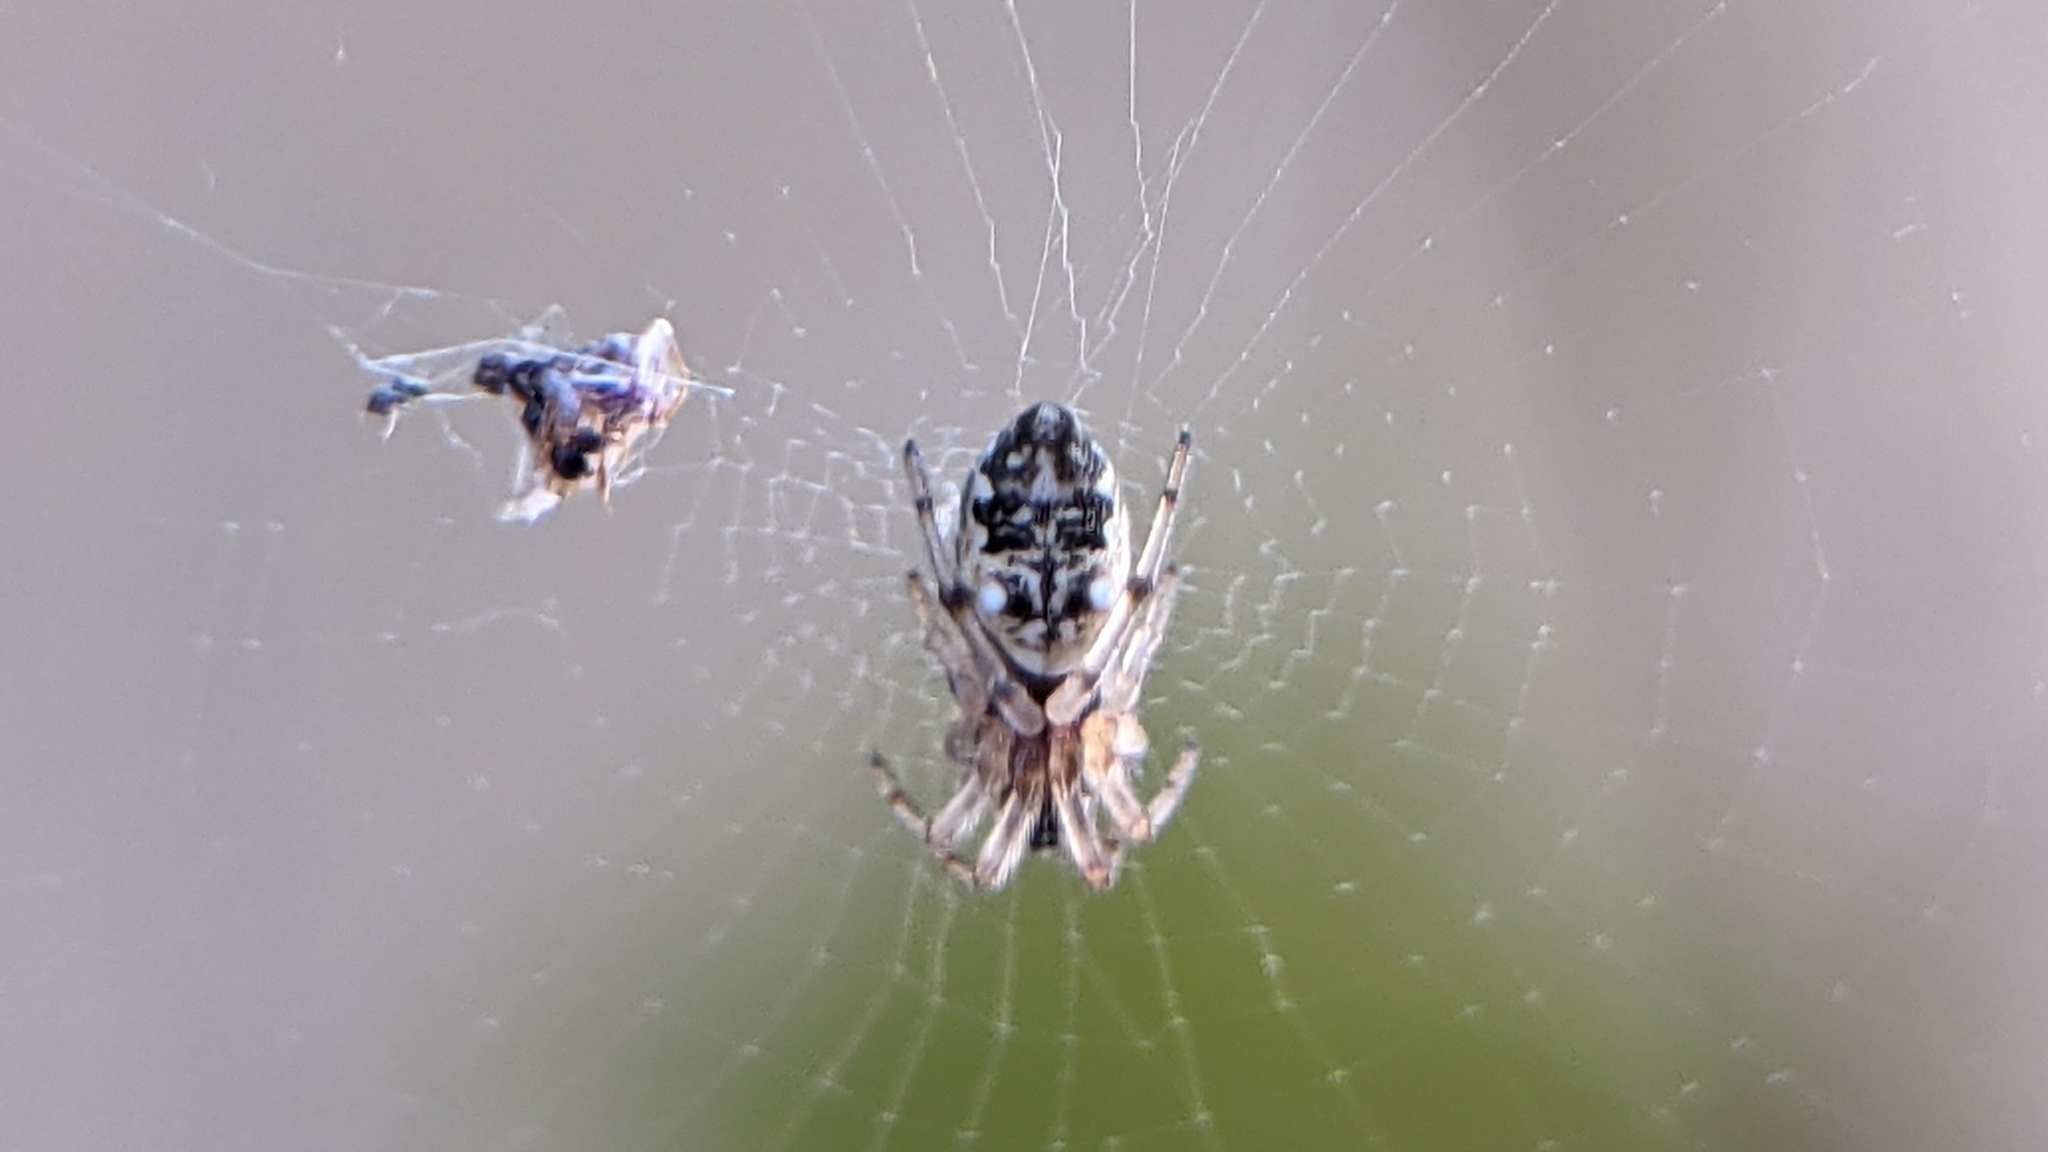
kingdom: Animalia
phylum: Arthropoda
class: Arachnida
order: Araneae
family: Araneidae
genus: Cyclosa
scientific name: Cyclosa turbinata
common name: Orb weavers
